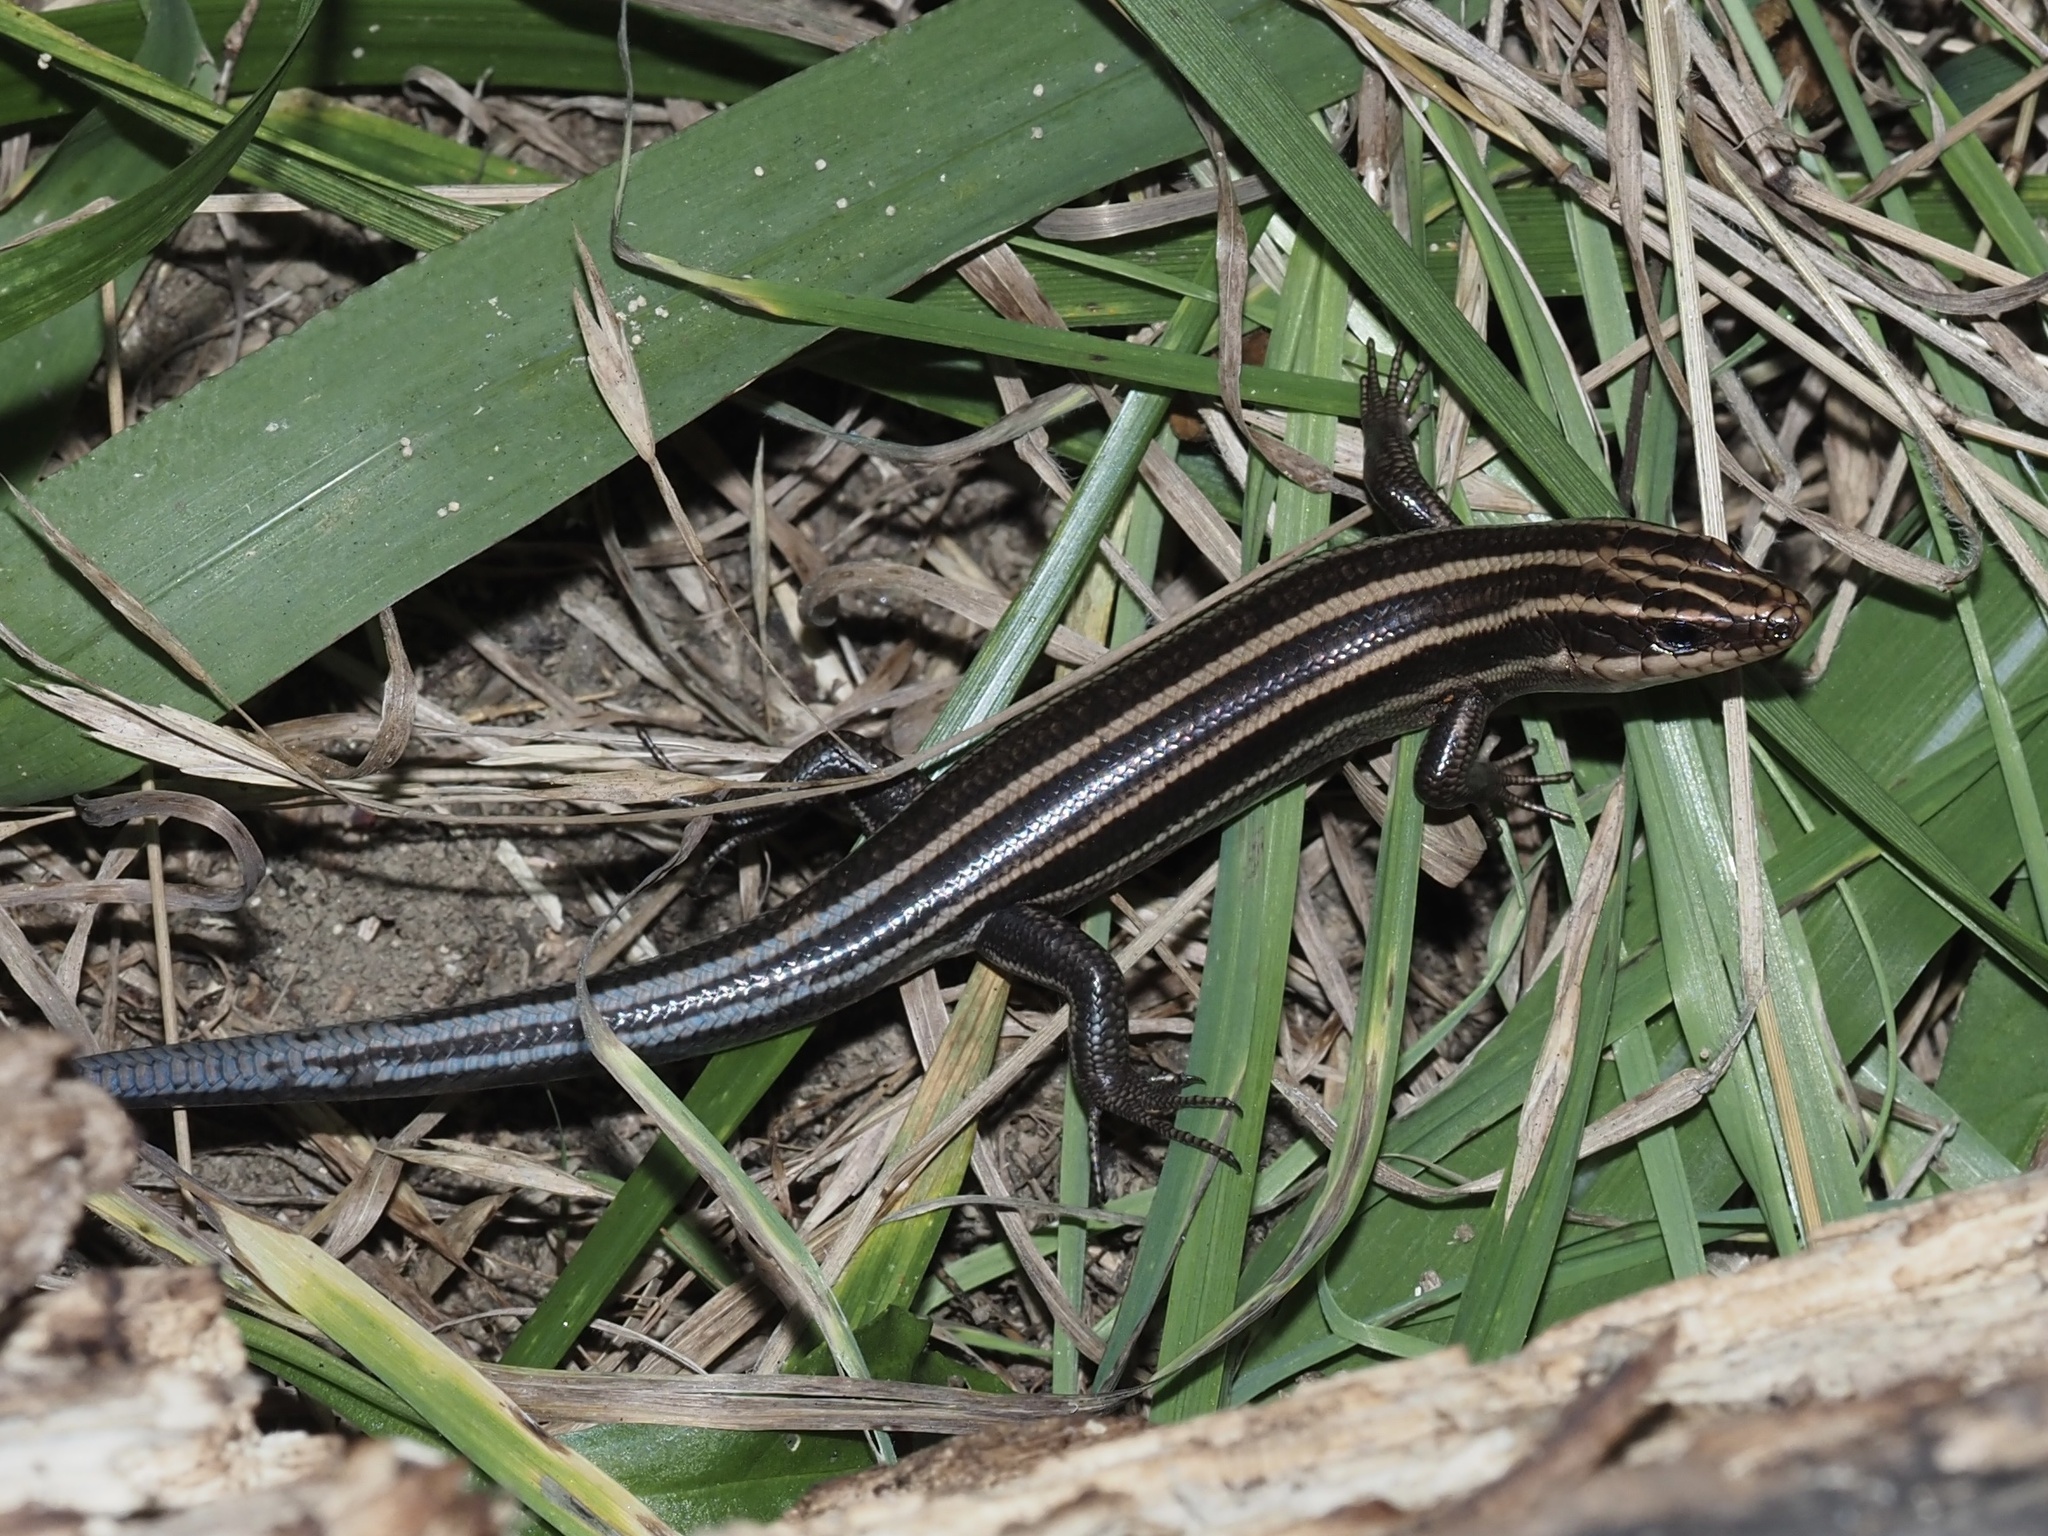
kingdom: Animalia
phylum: Chordata
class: Squamata
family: Scincidae
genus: Plestiodon
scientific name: Plestiodon fasciatus
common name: Five-lined skink
